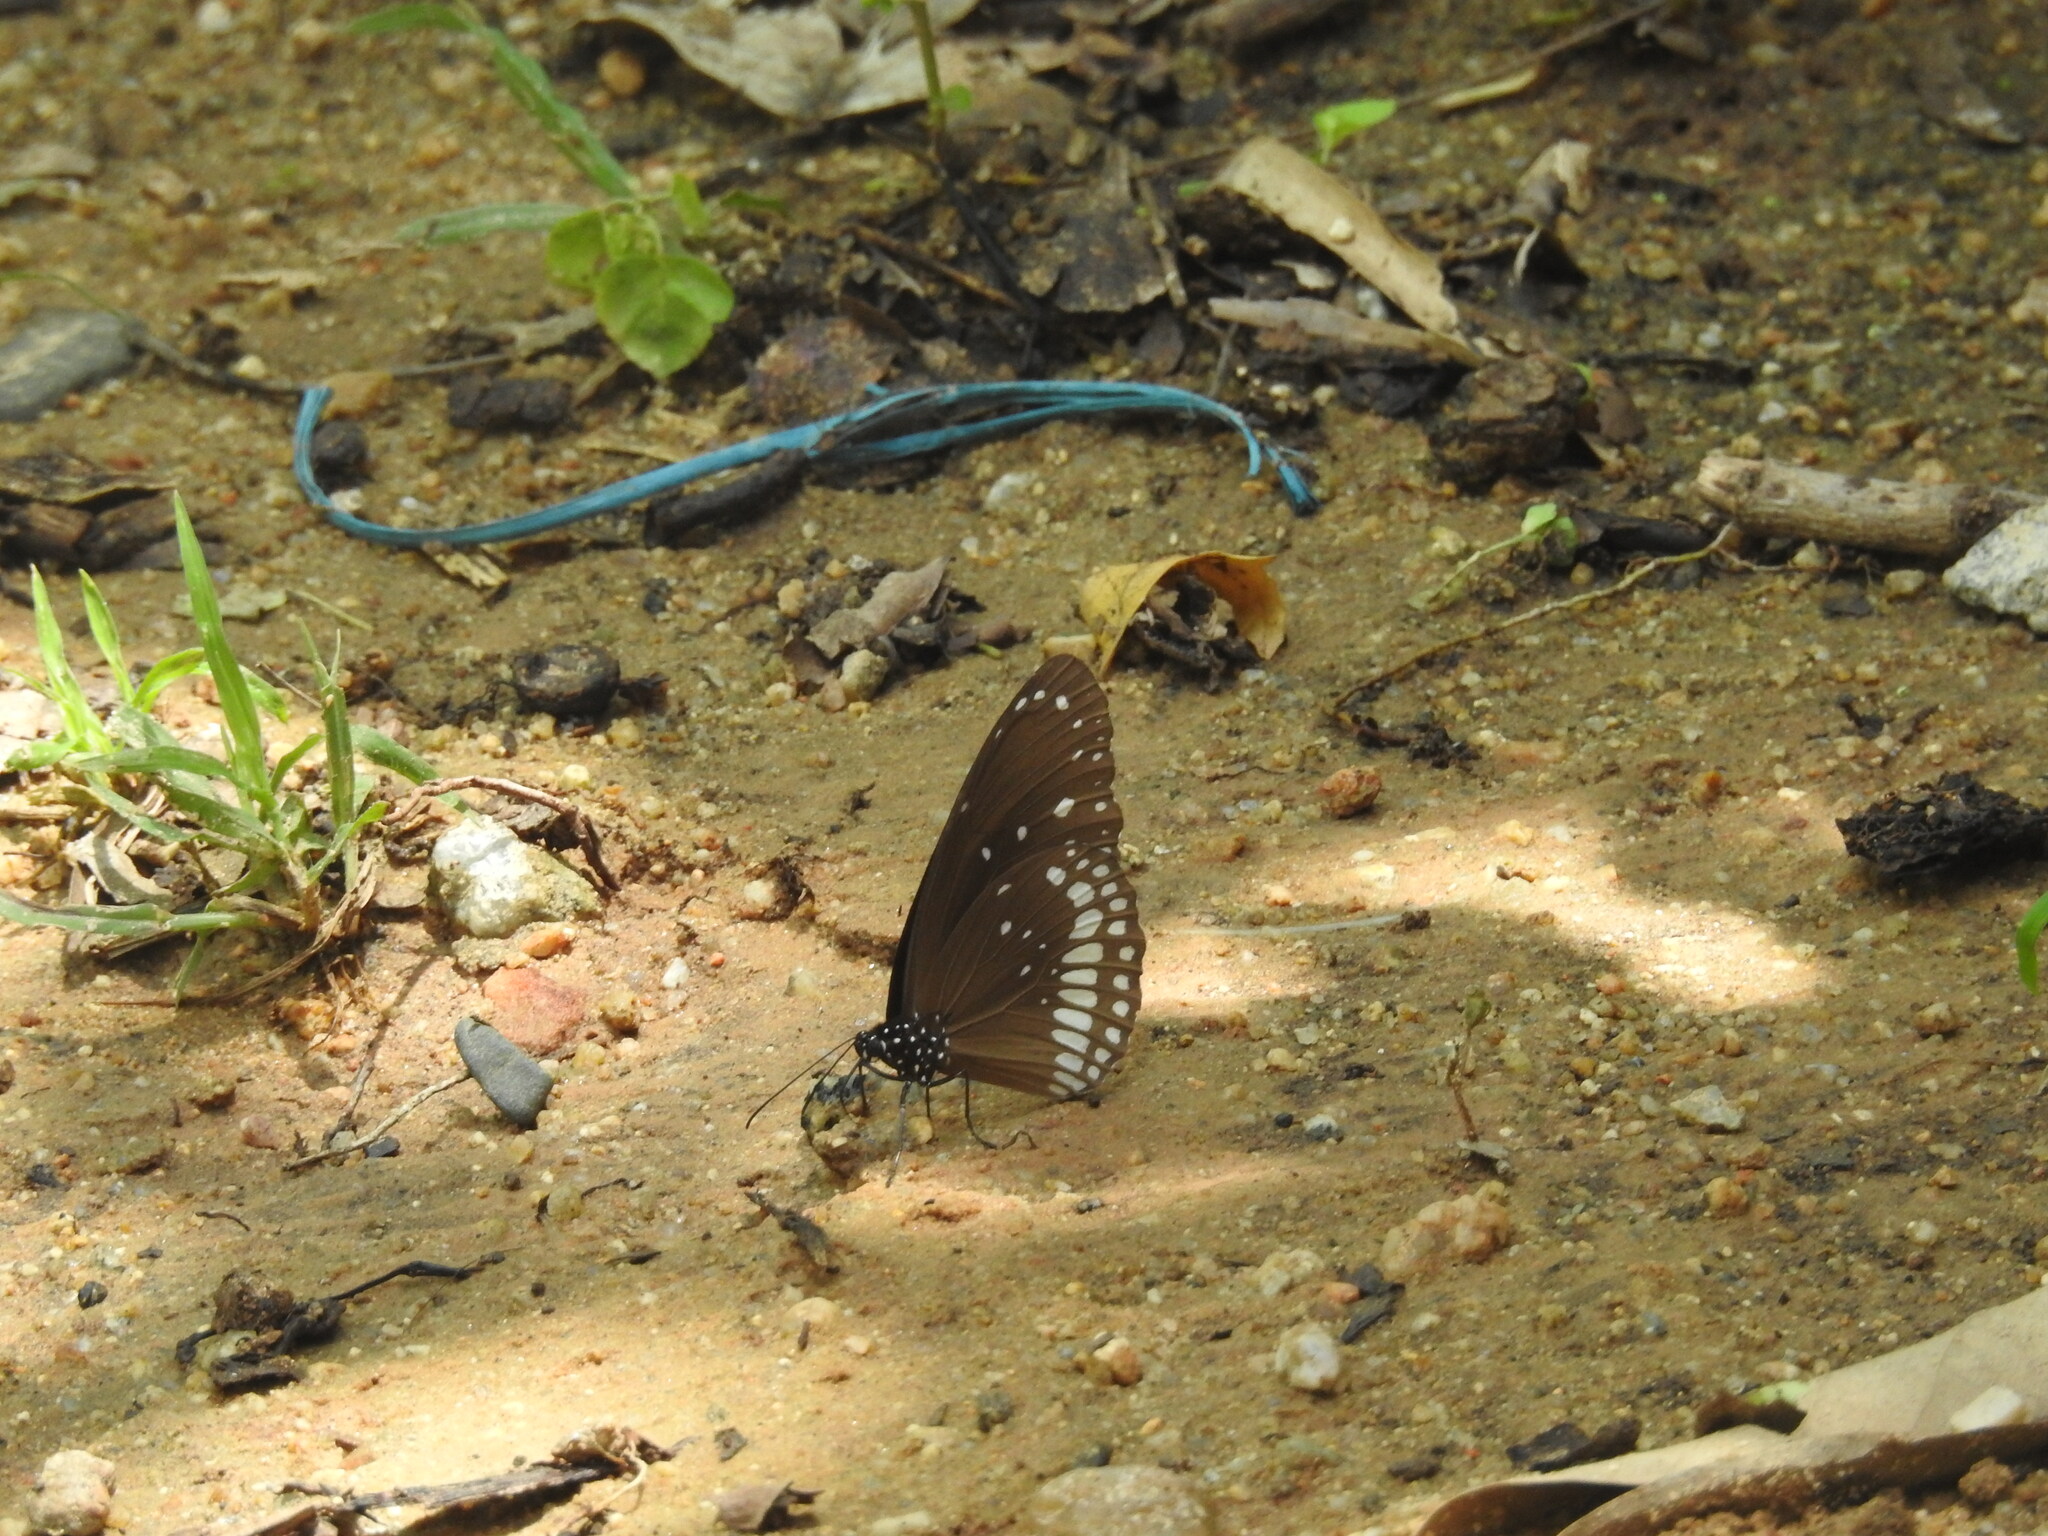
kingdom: Animalia
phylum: Arthropoda
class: Insecta
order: Lepidoptera
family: Nymphalidae
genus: Euploea
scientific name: Euploea core
